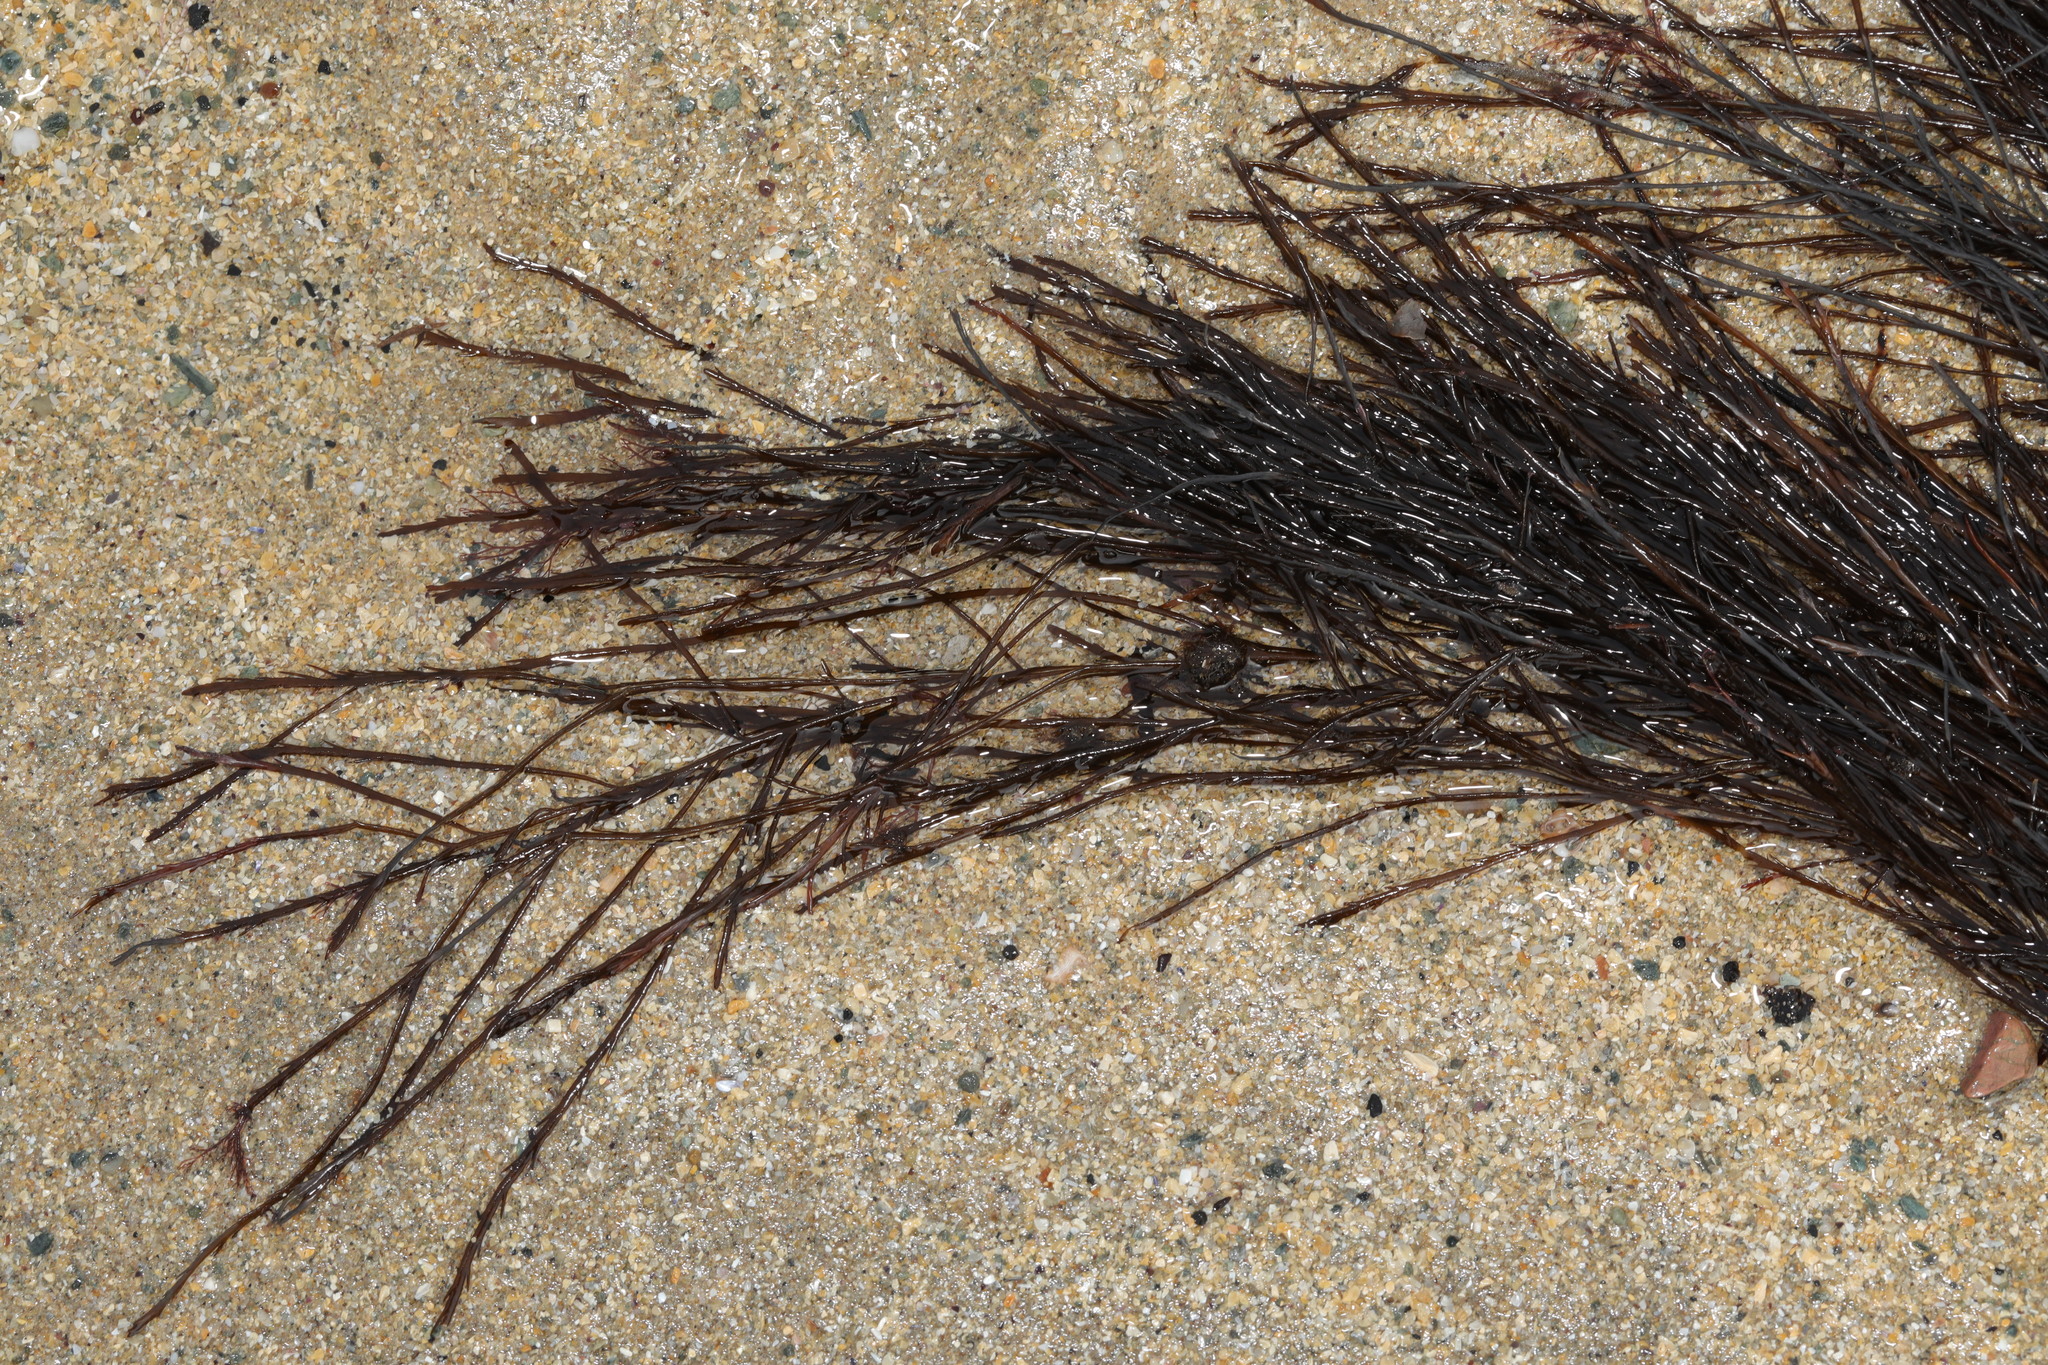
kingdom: Chromista
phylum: Ochrophyta
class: Phaeophyceae
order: Desmarestiales
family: Desmarestiaceae
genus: Desmarestia
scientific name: Desmarestia aculeata
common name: Witch's hair
